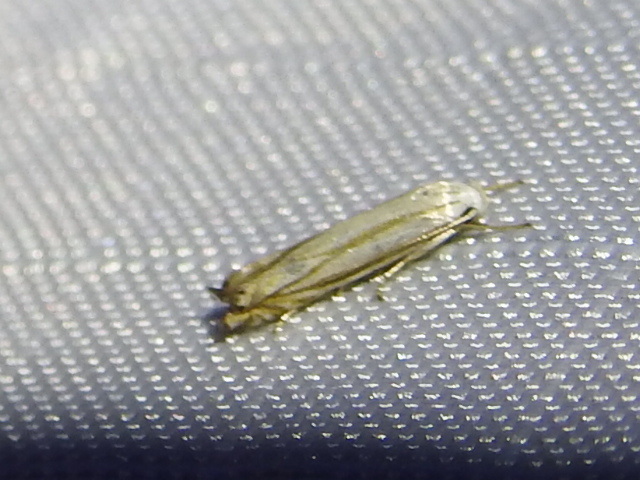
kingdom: Animalia
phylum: Arthropoda
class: Insecta
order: Lepidoptera
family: Gelechiidae
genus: Polyhymno
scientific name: Polyhymno luteostrigella
